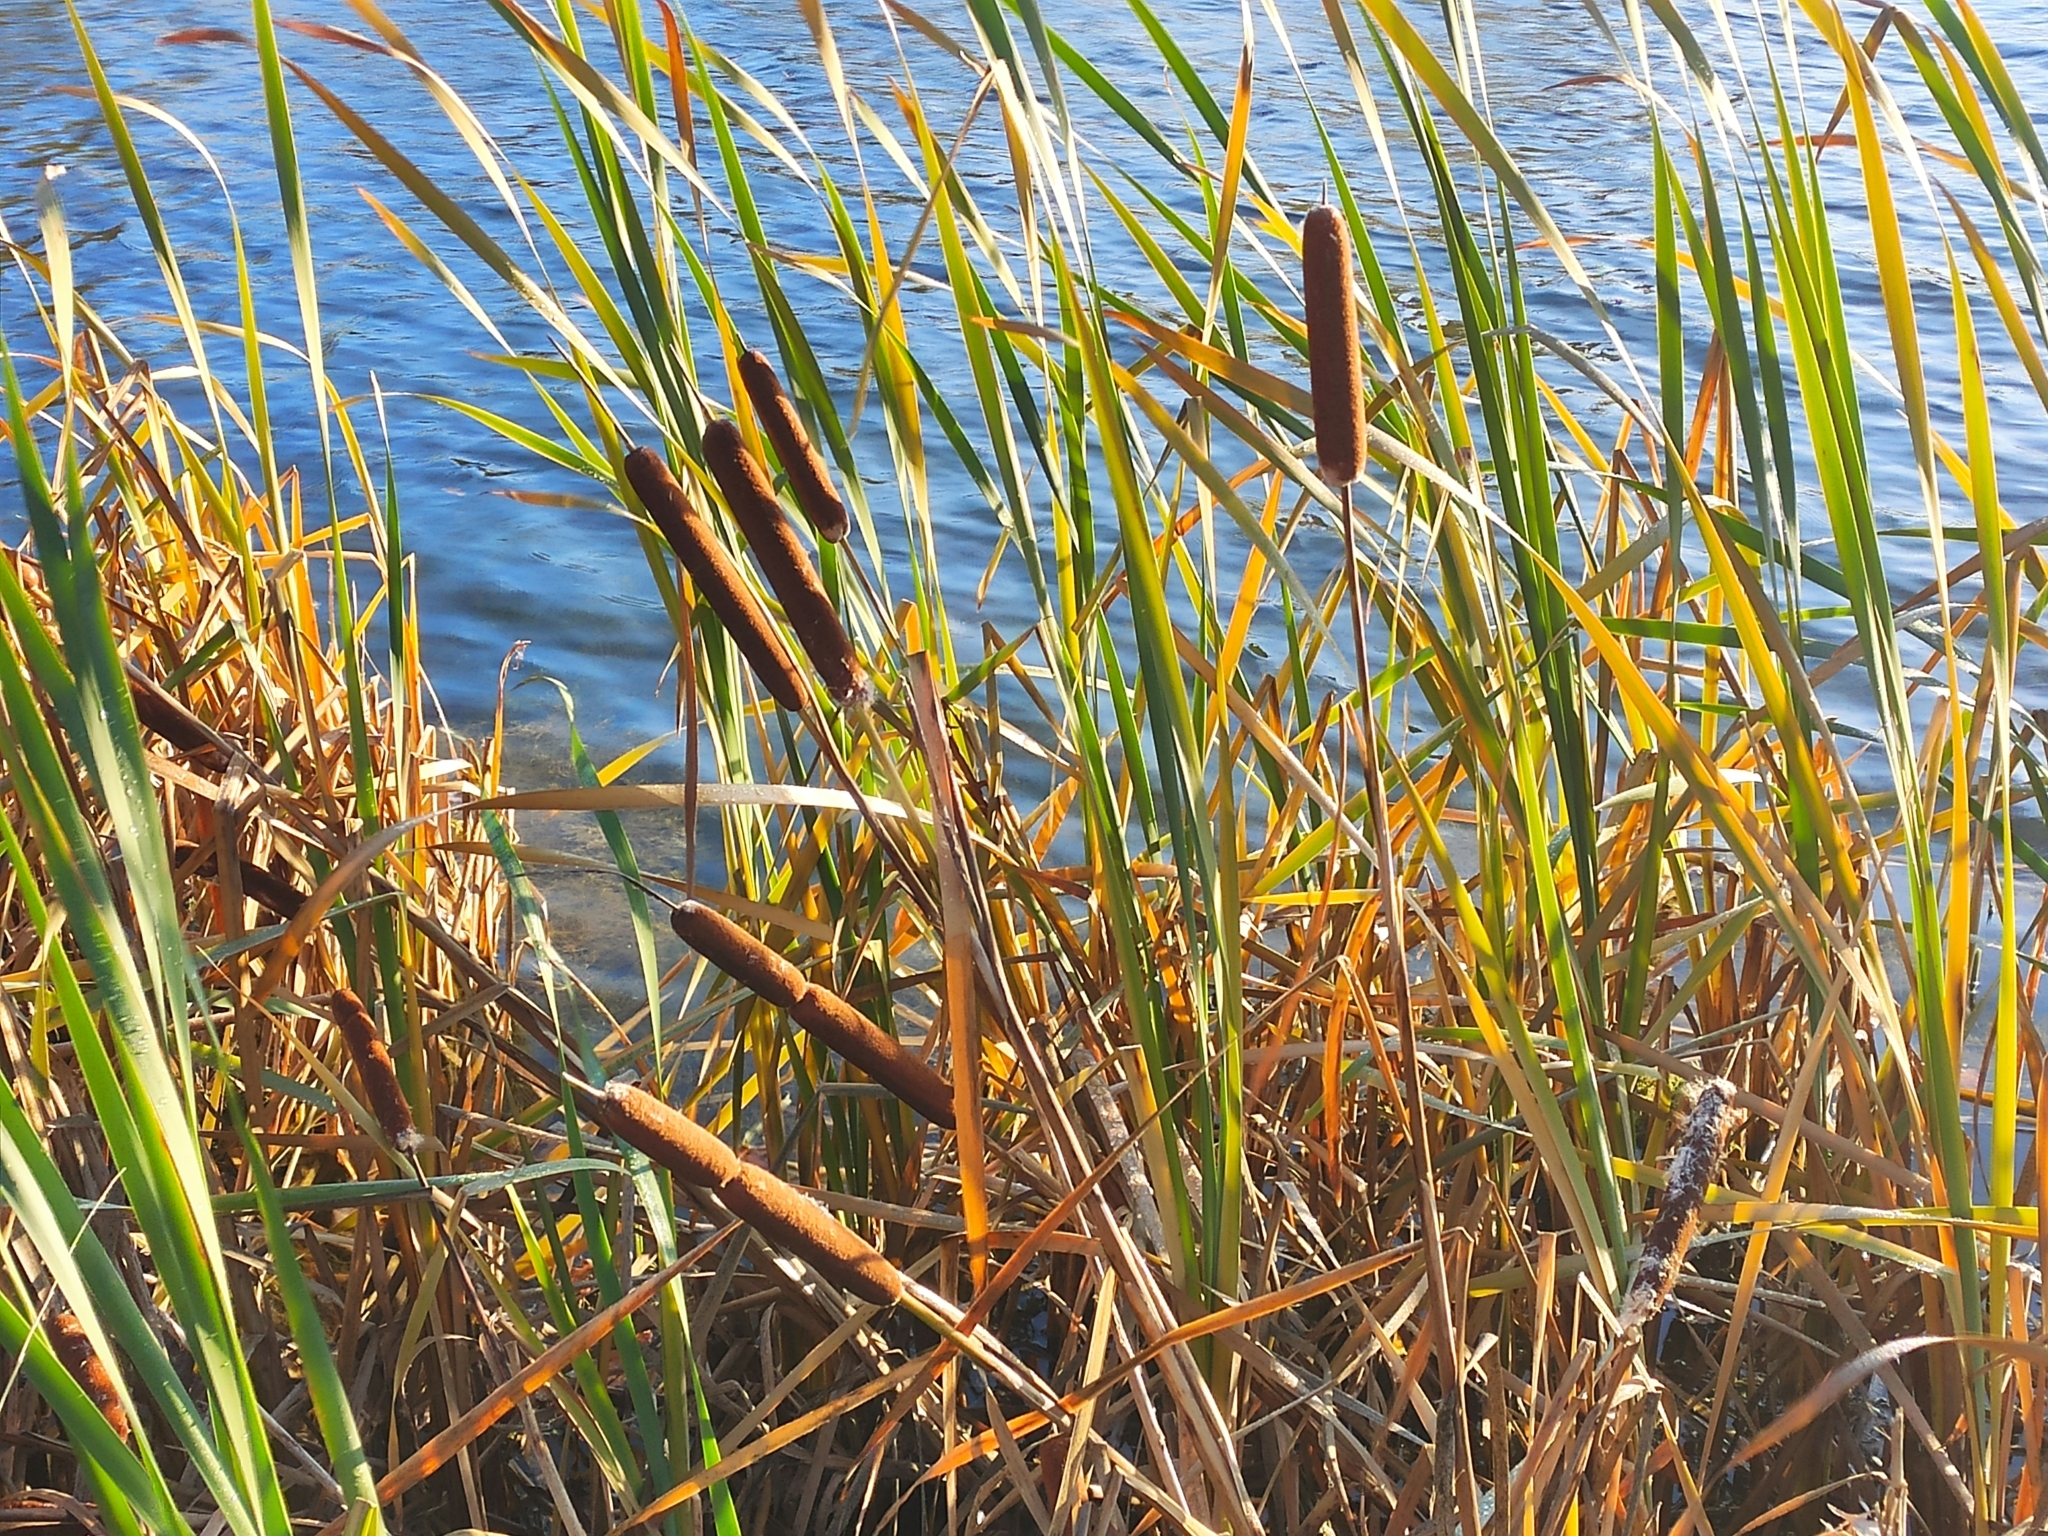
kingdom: Plantae
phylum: Tracheophyta
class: Liliopsida
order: Poales
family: Typhaceae
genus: Typha
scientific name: Typha latifolia
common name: Broadleaf cattail
